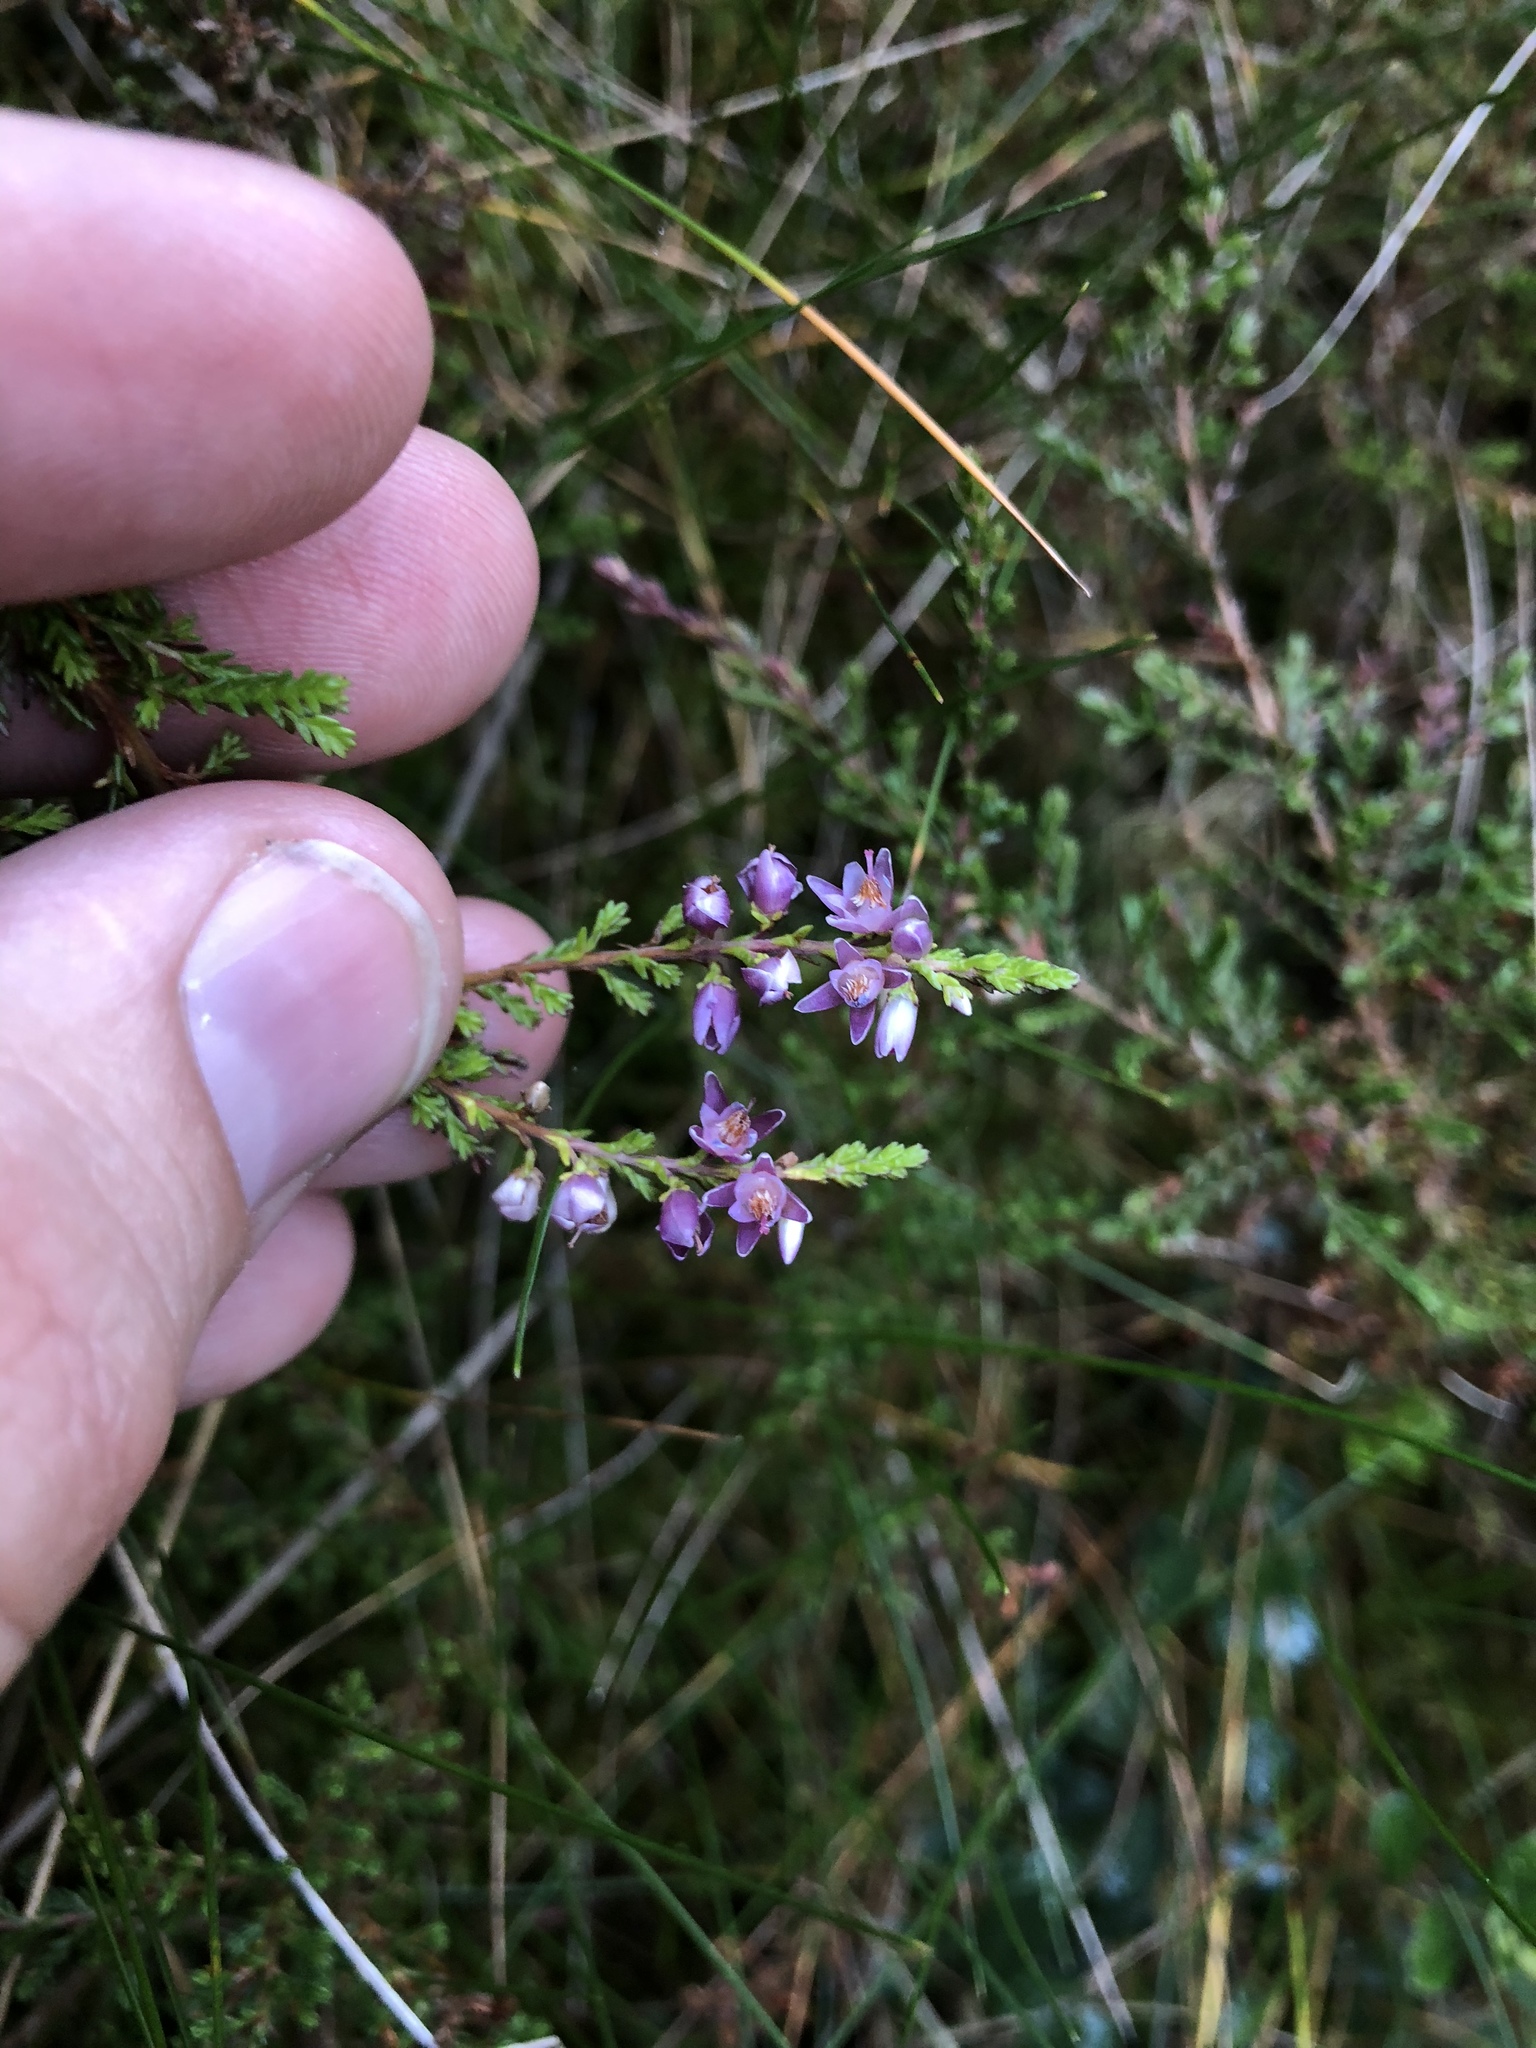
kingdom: Plantae
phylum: Tracheophyta
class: Magnoliopsida
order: Ericales
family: Ericaceae
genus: Calluna
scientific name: Calluna vulgaris
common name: Heather
